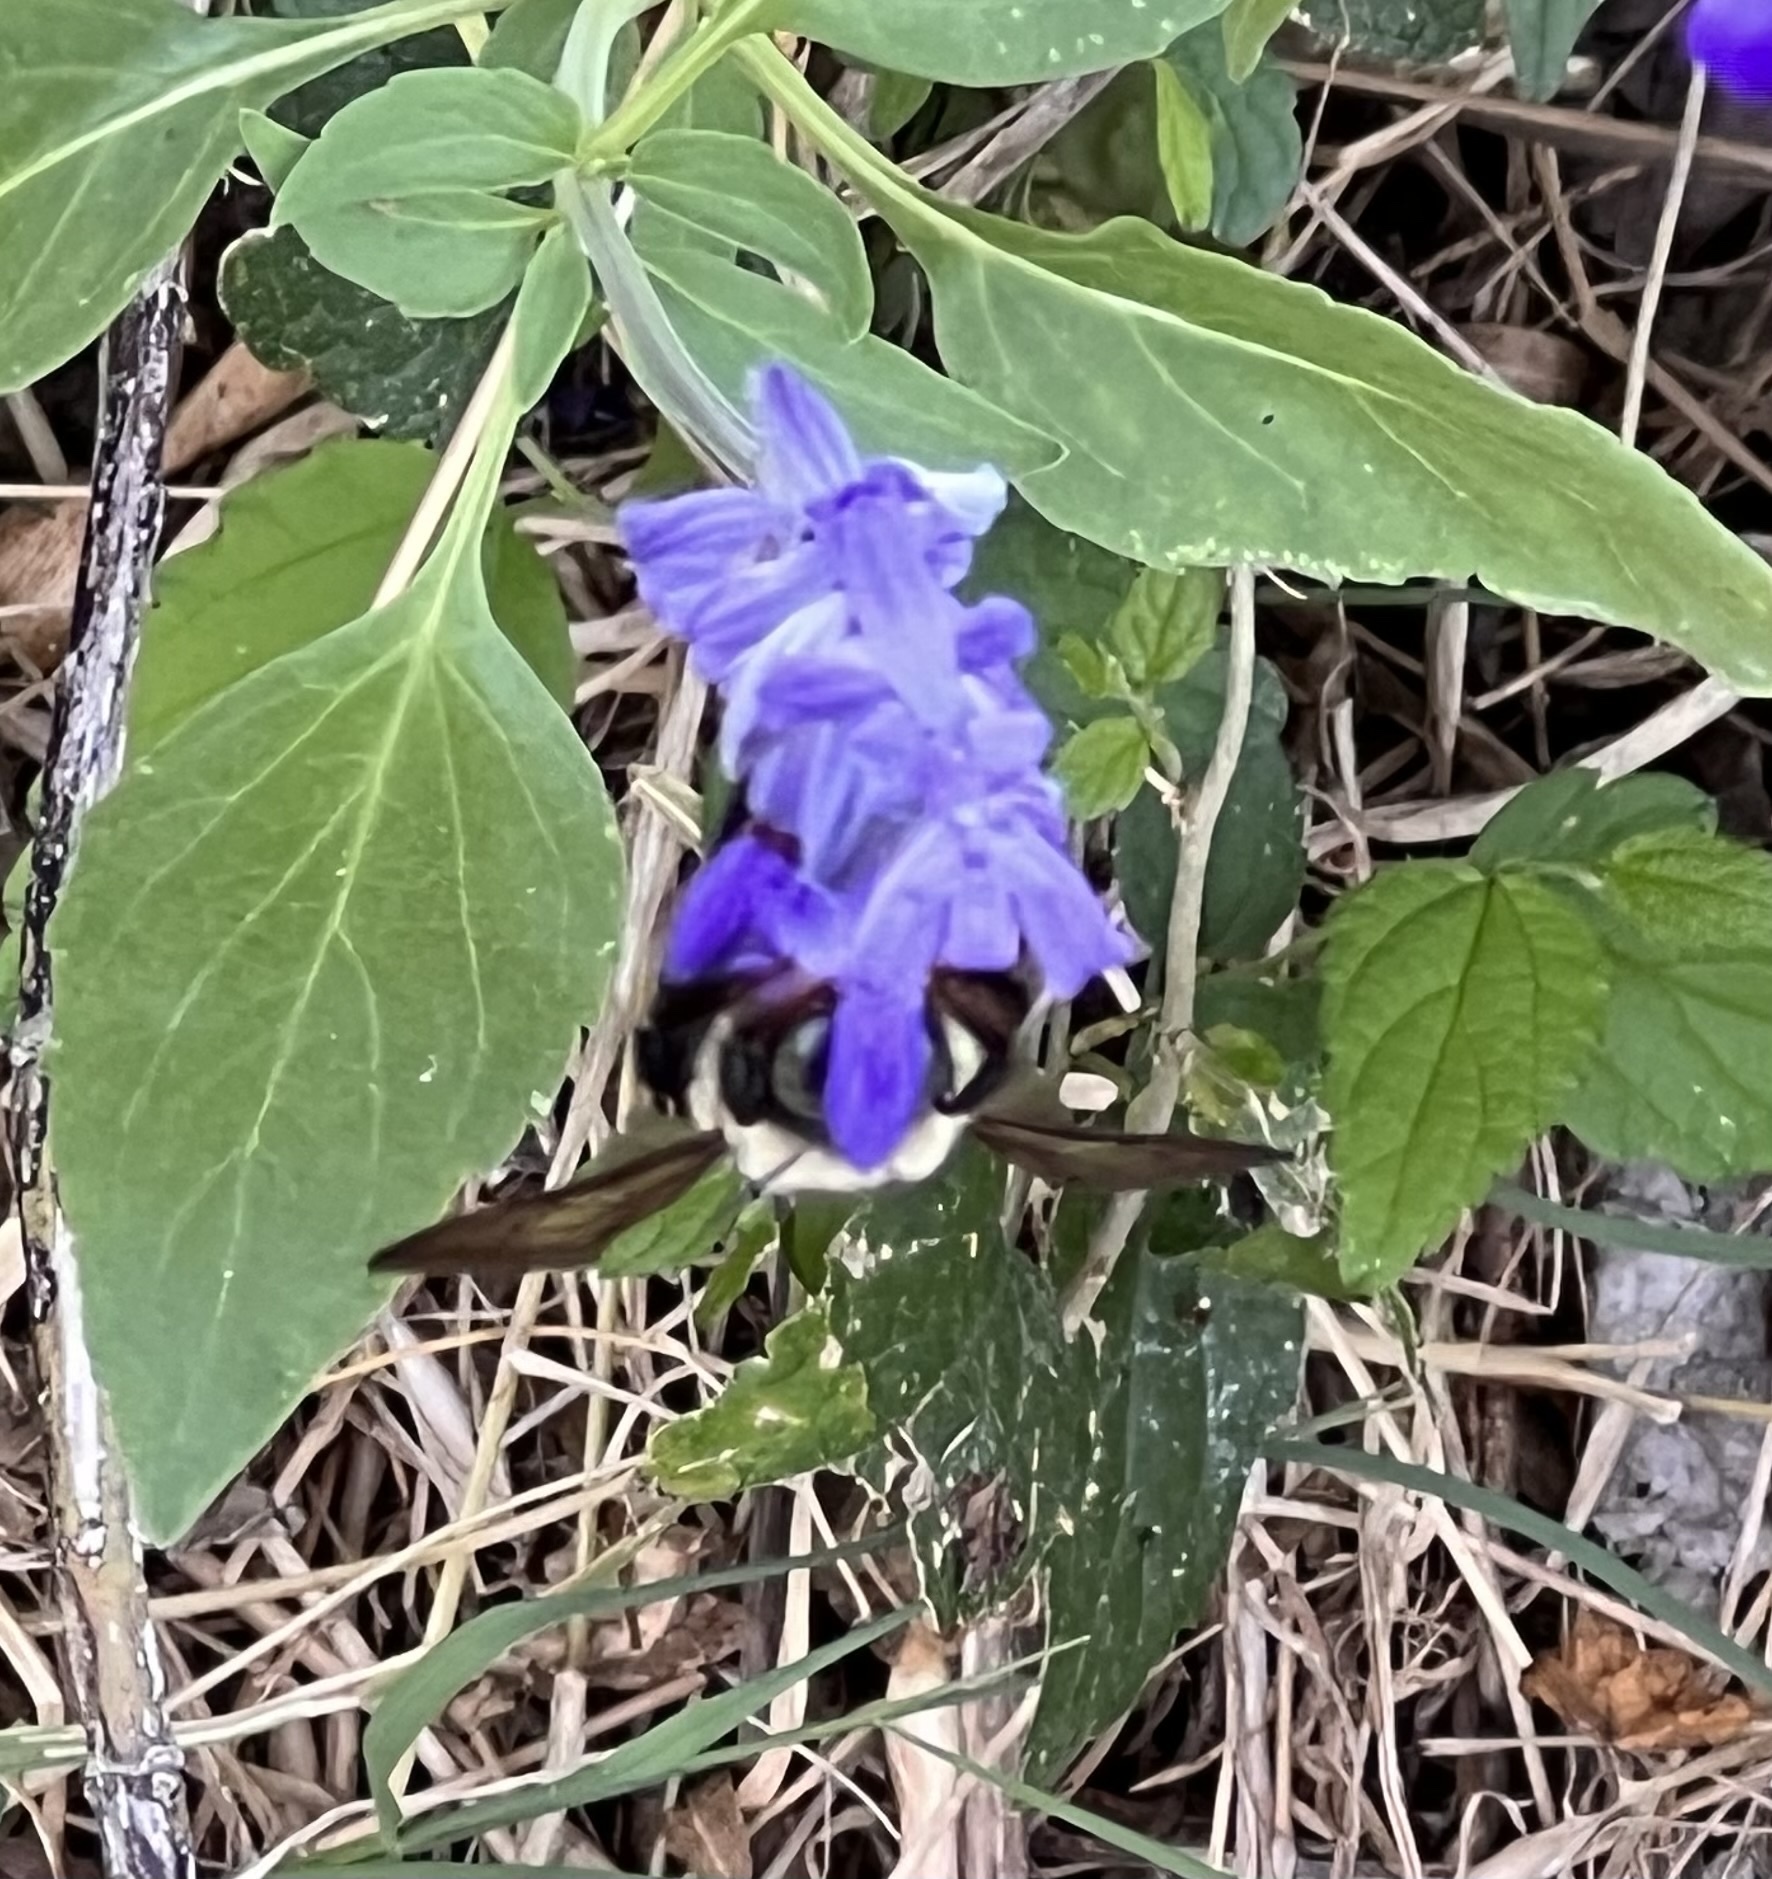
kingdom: Animalia
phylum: Arthropoda
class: Insecta
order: Hymenoptera
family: Apidae
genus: Xylocopa
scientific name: Xylocopa virginica
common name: Carpenter bee
